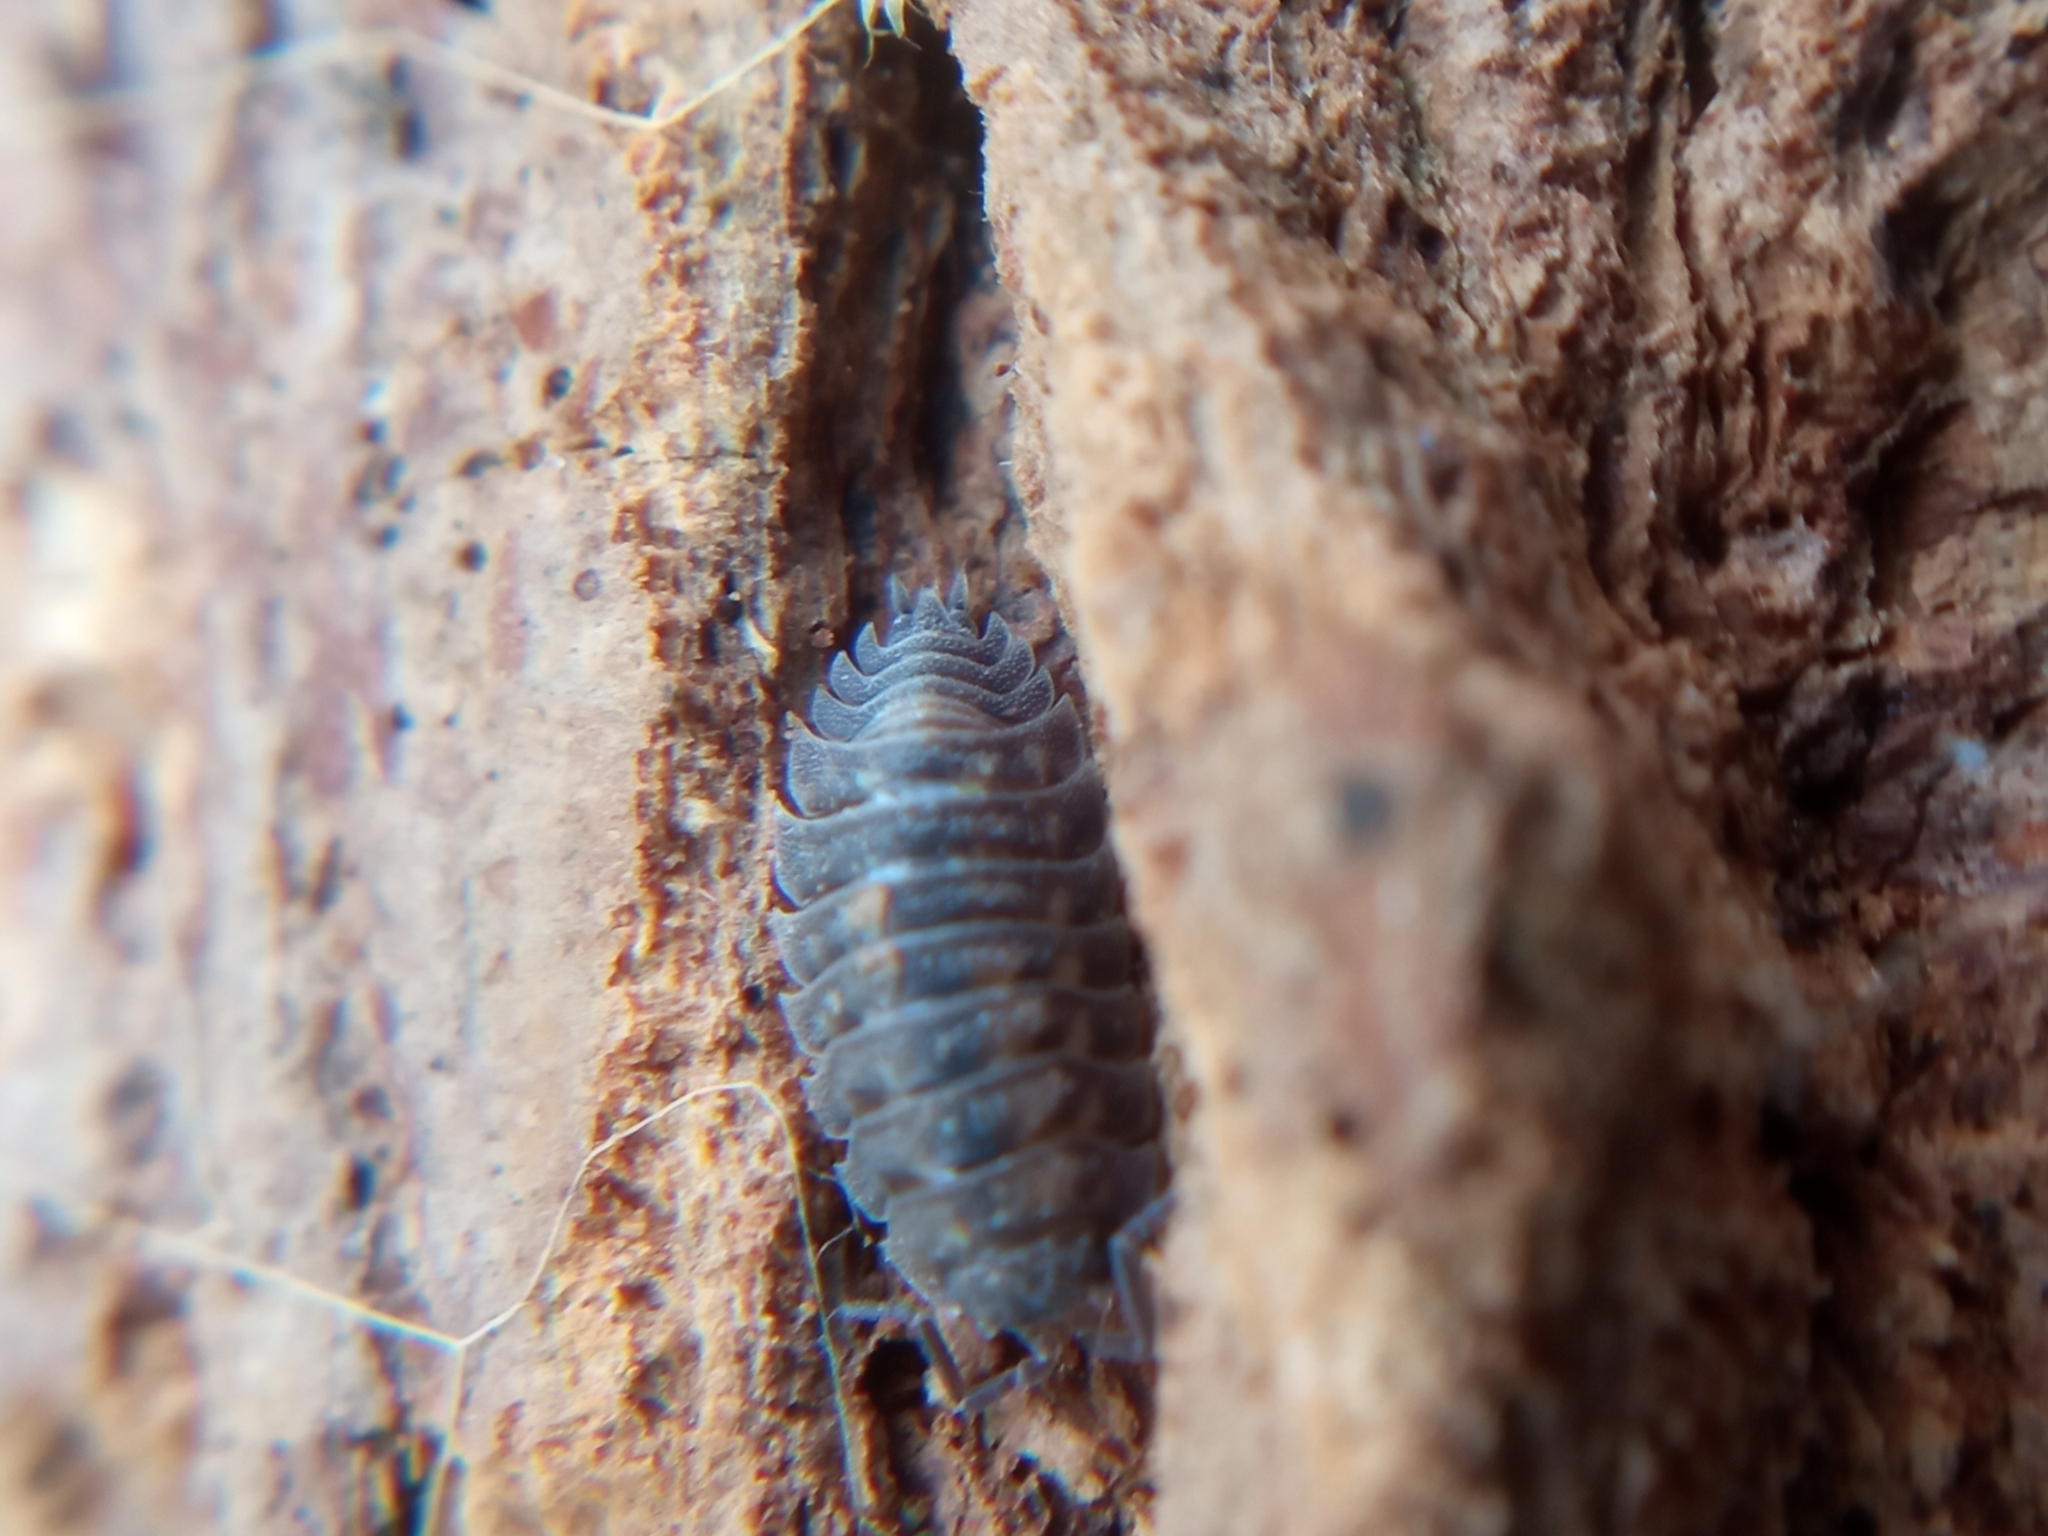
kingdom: Animalia
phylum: Arthropoda
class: Malacostraca
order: Isopoda
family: Oniscidae
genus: Oniscus
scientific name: Oniscus asellus
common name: Common shiny woodlouse
